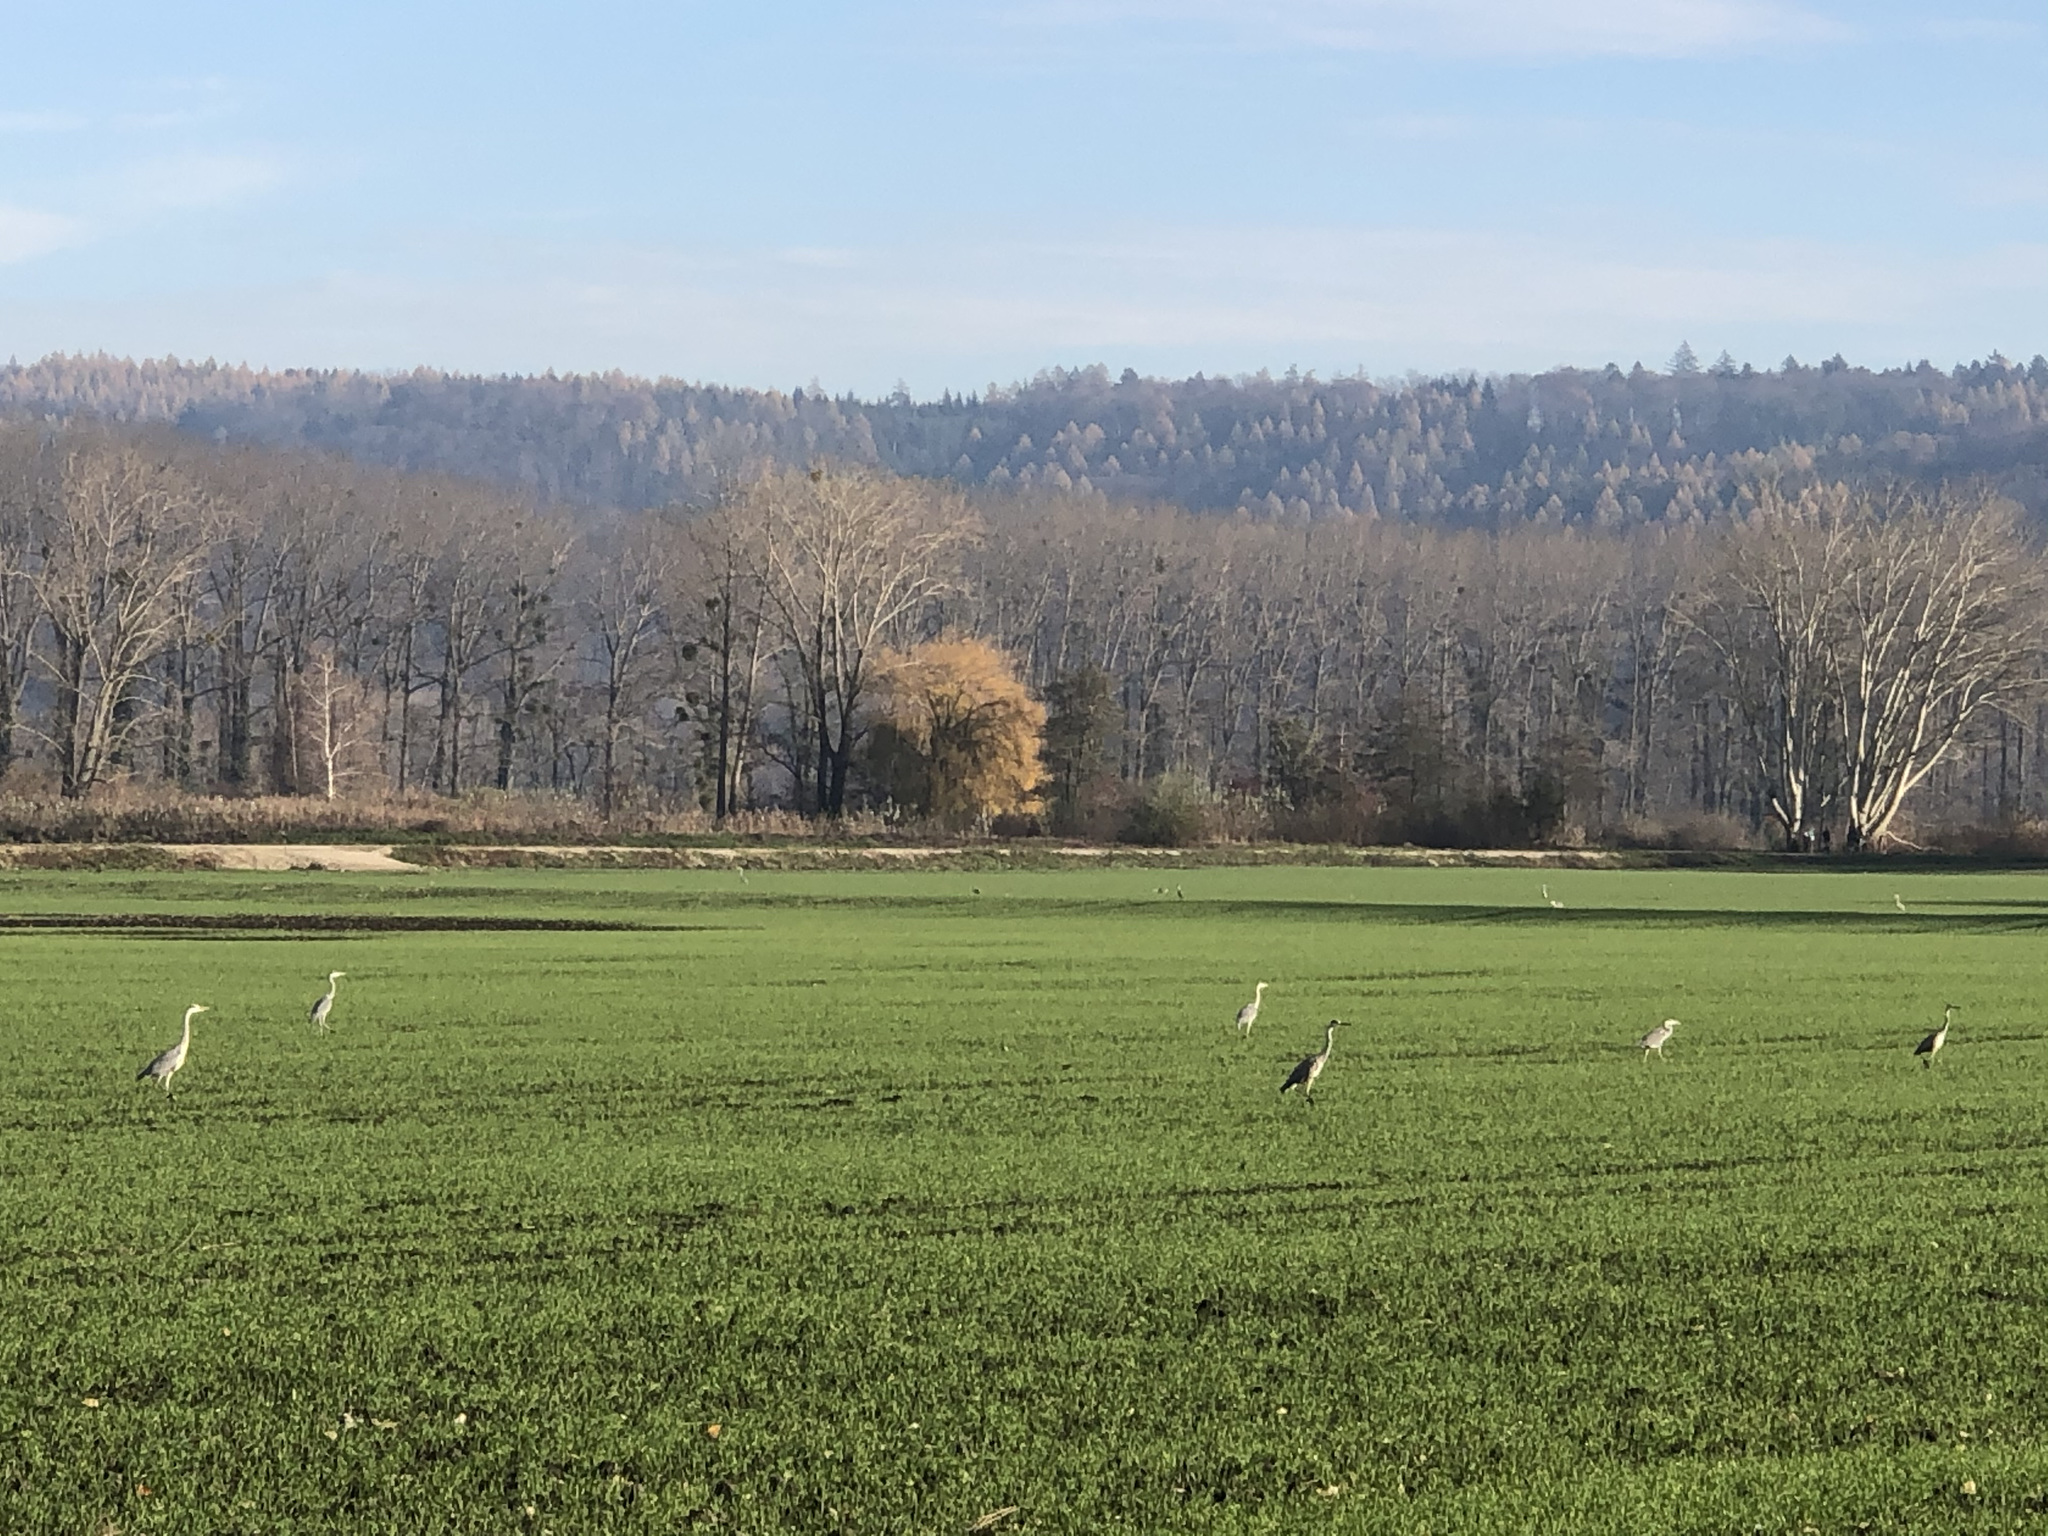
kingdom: Animalia
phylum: Chordata
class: Aves
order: Pelecaniformes
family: Ardeidae
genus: Ardea
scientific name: Ardea cinerea
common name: Grey heron
